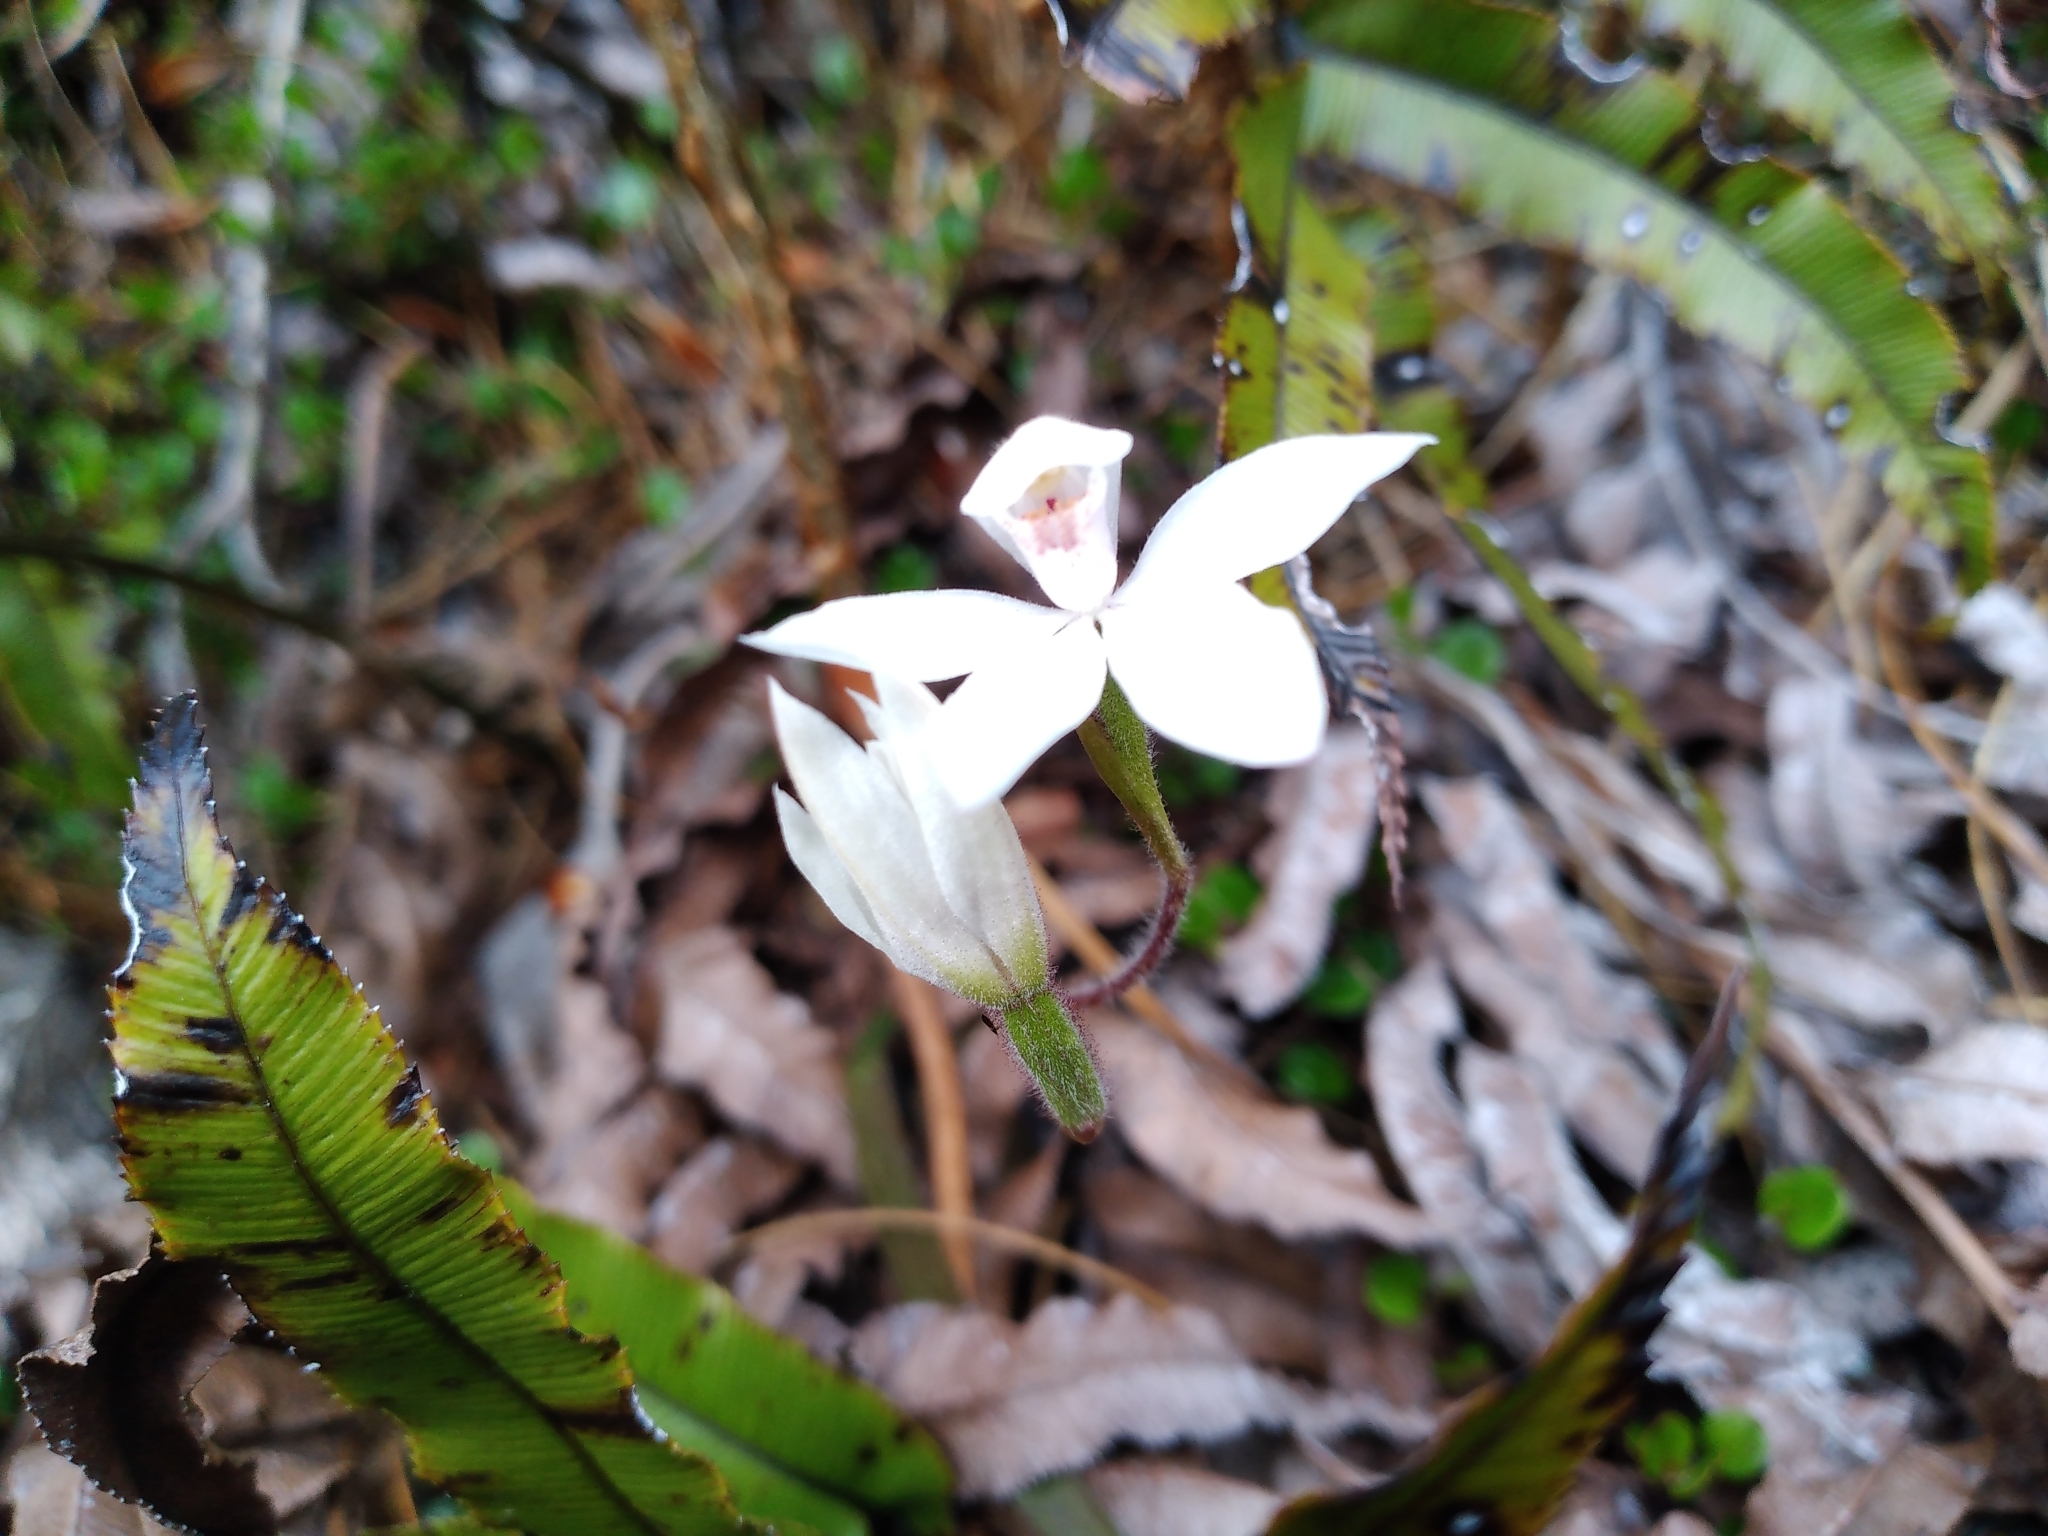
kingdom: Plantae
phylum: Tracheophyta
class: Liliopsida
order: Asparagales
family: Orchidaceae
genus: Caladenia
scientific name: Caladenia lyallii
